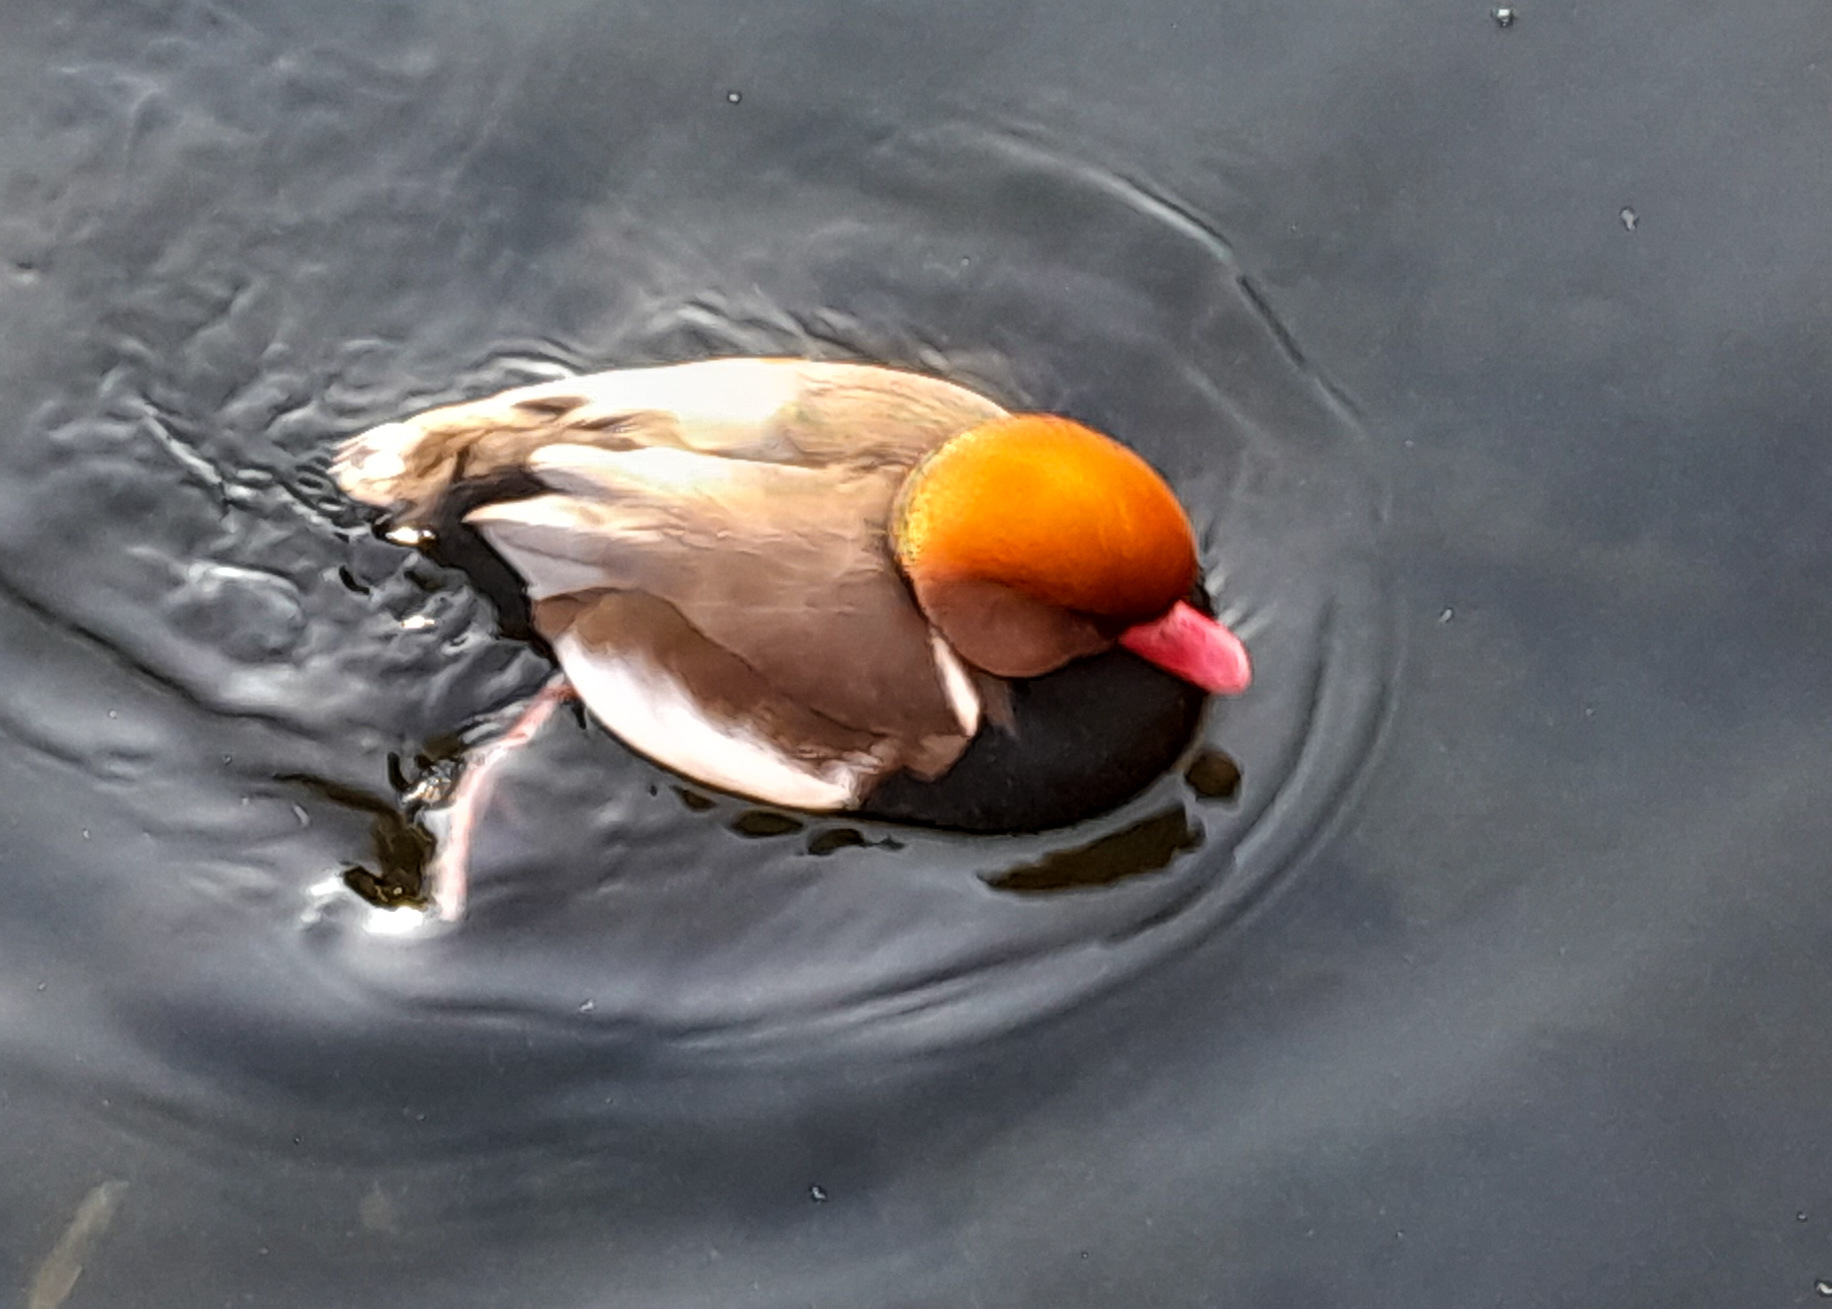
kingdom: Animalia
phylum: Chordata
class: Aves
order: Anseriformes
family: Anatidae
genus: Netta
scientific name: Netta rufina
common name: Red-crested pochard
